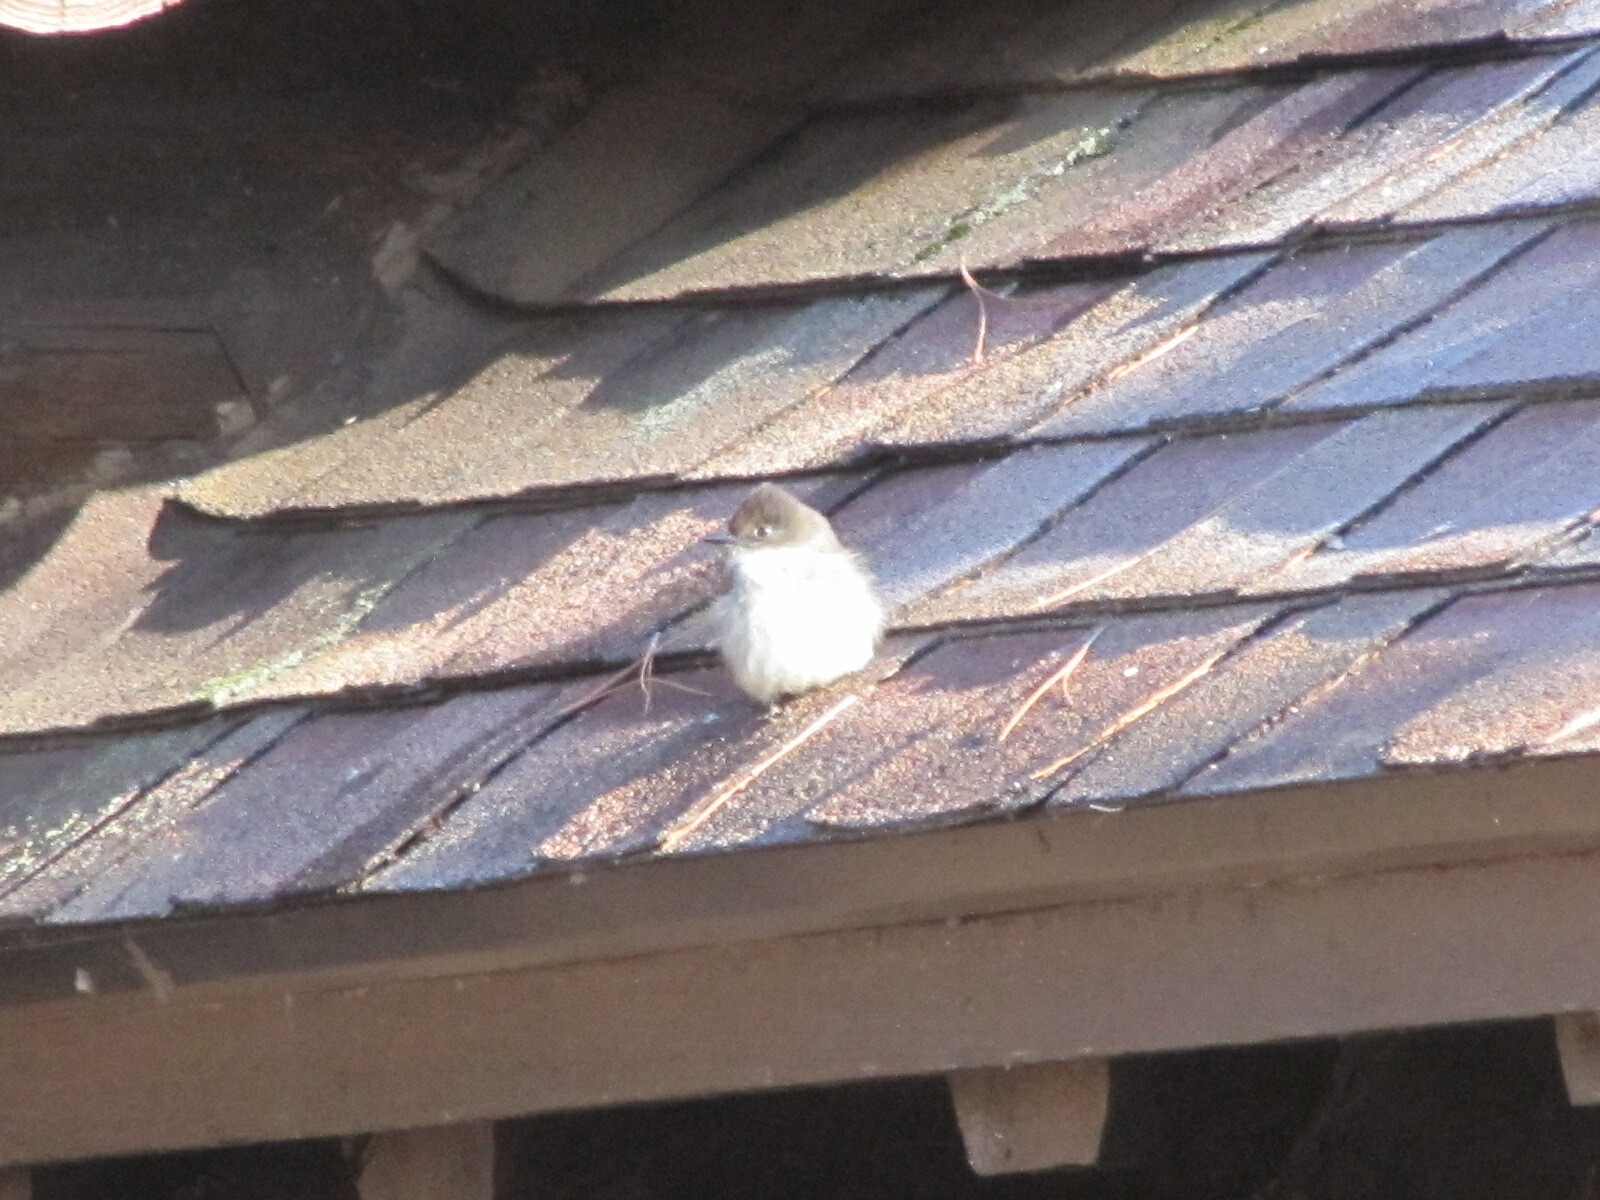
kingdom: Animalia
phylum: Chordata
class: Aves
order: Passeriformes
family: Tyrannidae
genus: Sayornis
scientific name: Sayornis phoebe
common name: Eastern phoebe
